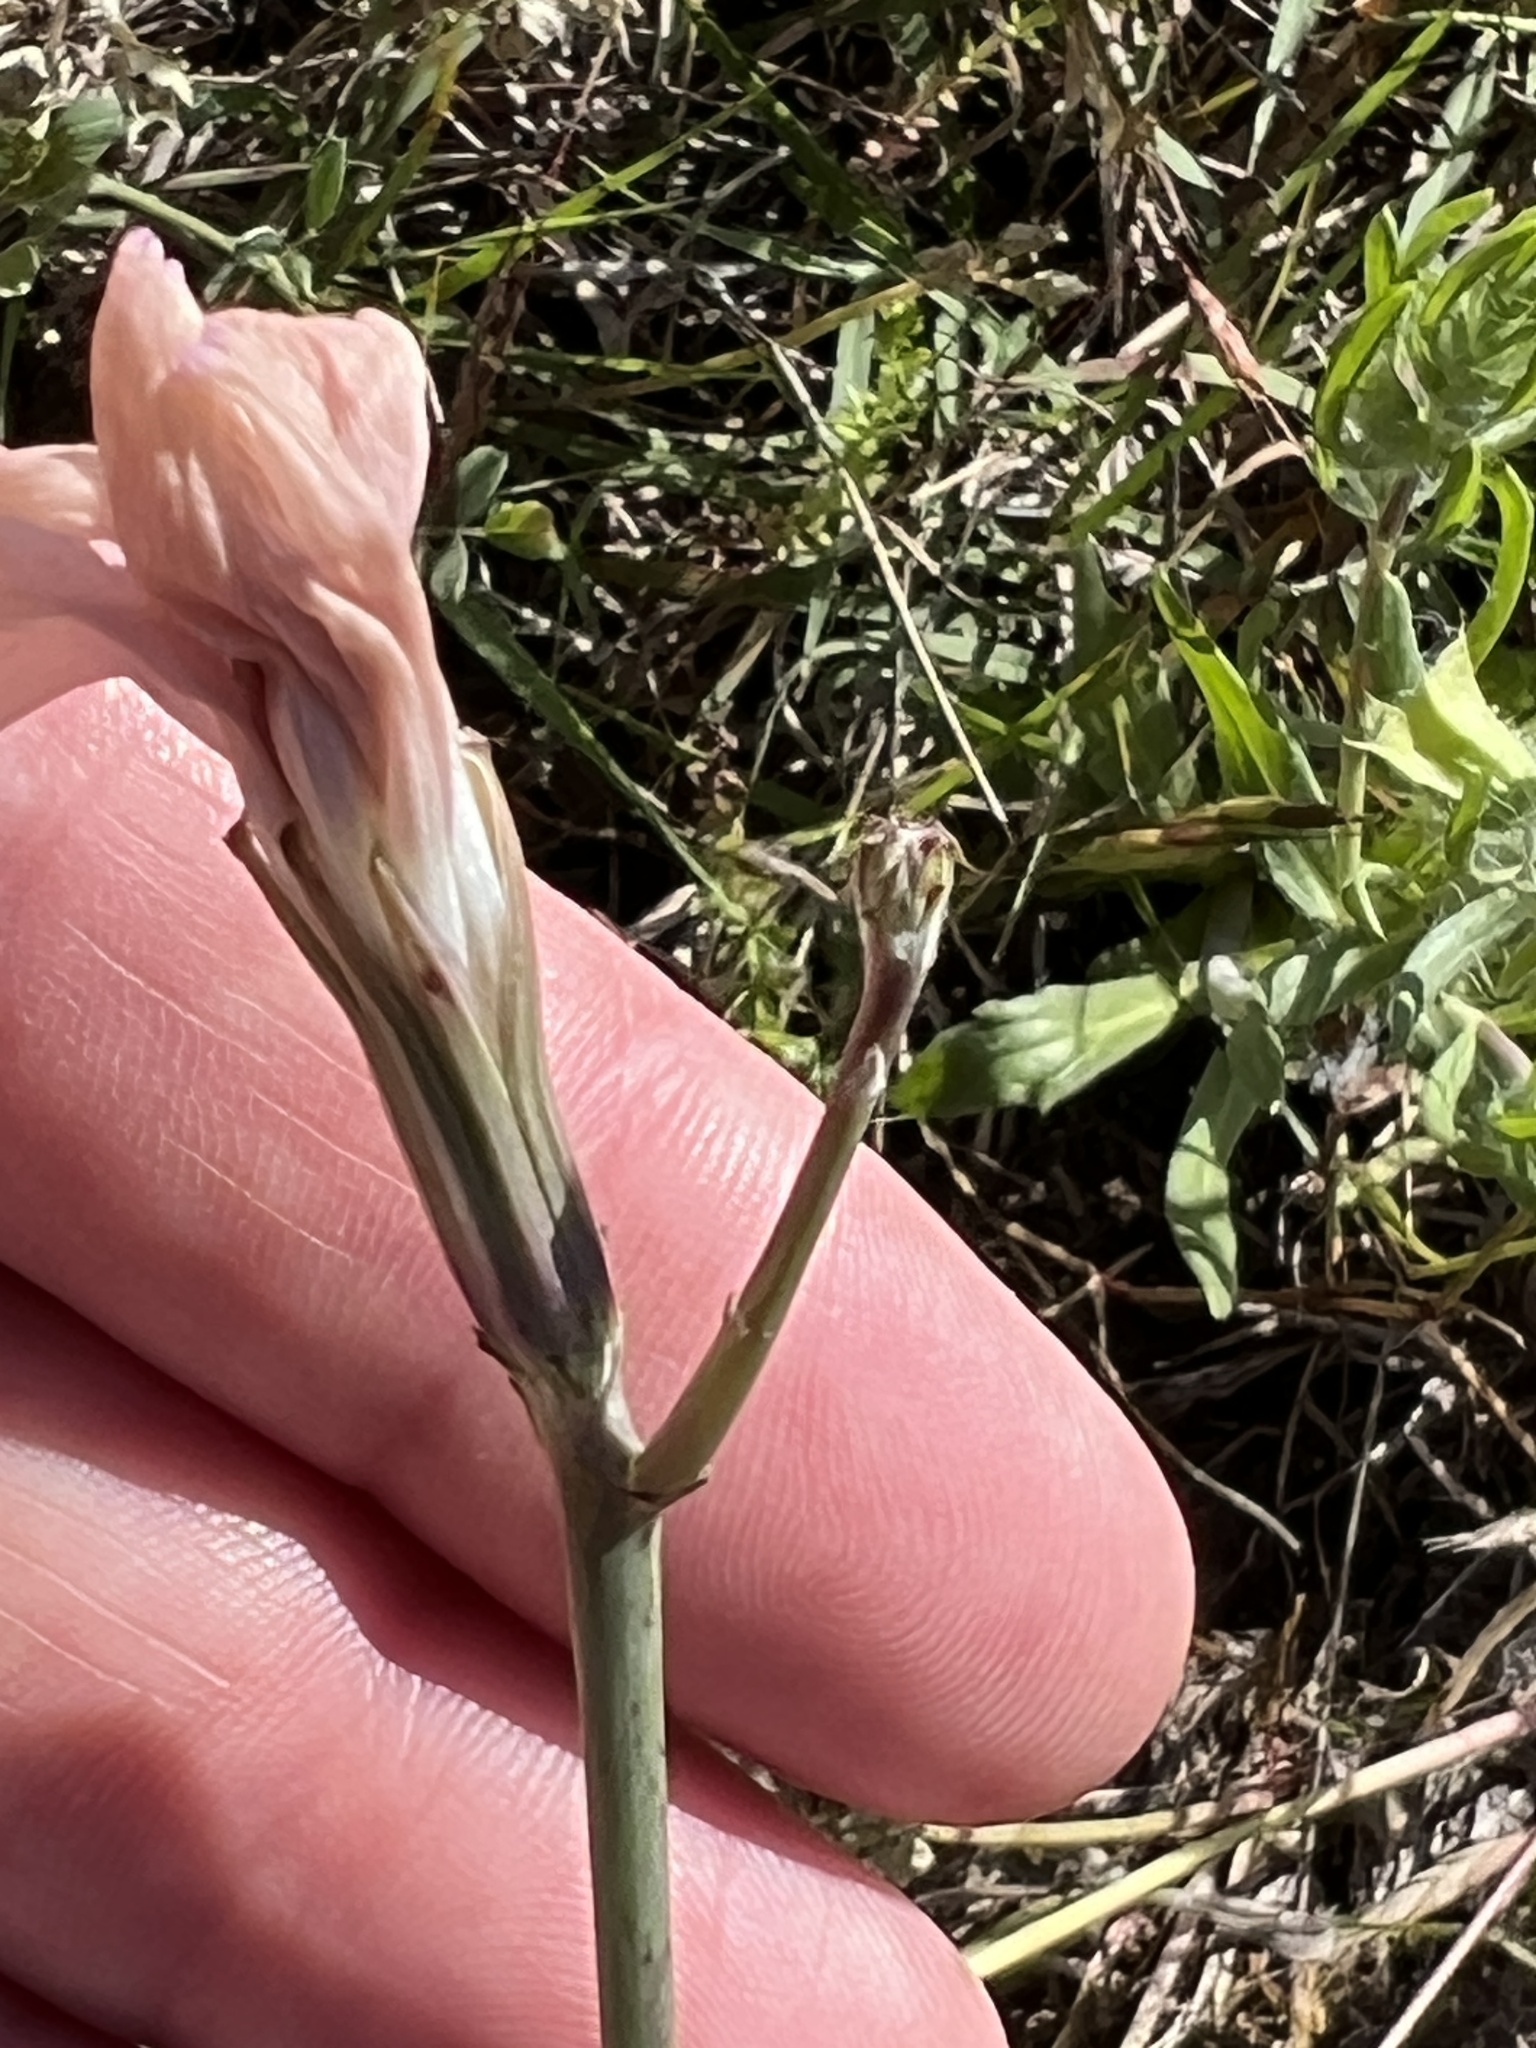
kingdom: Plantae
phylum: Tracheophyta
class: Magnoliopsida
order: Asterales
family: Asteraceae
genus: Lygodesmia
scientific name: Lygodesmia texana
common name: Texas skeleton-plant
